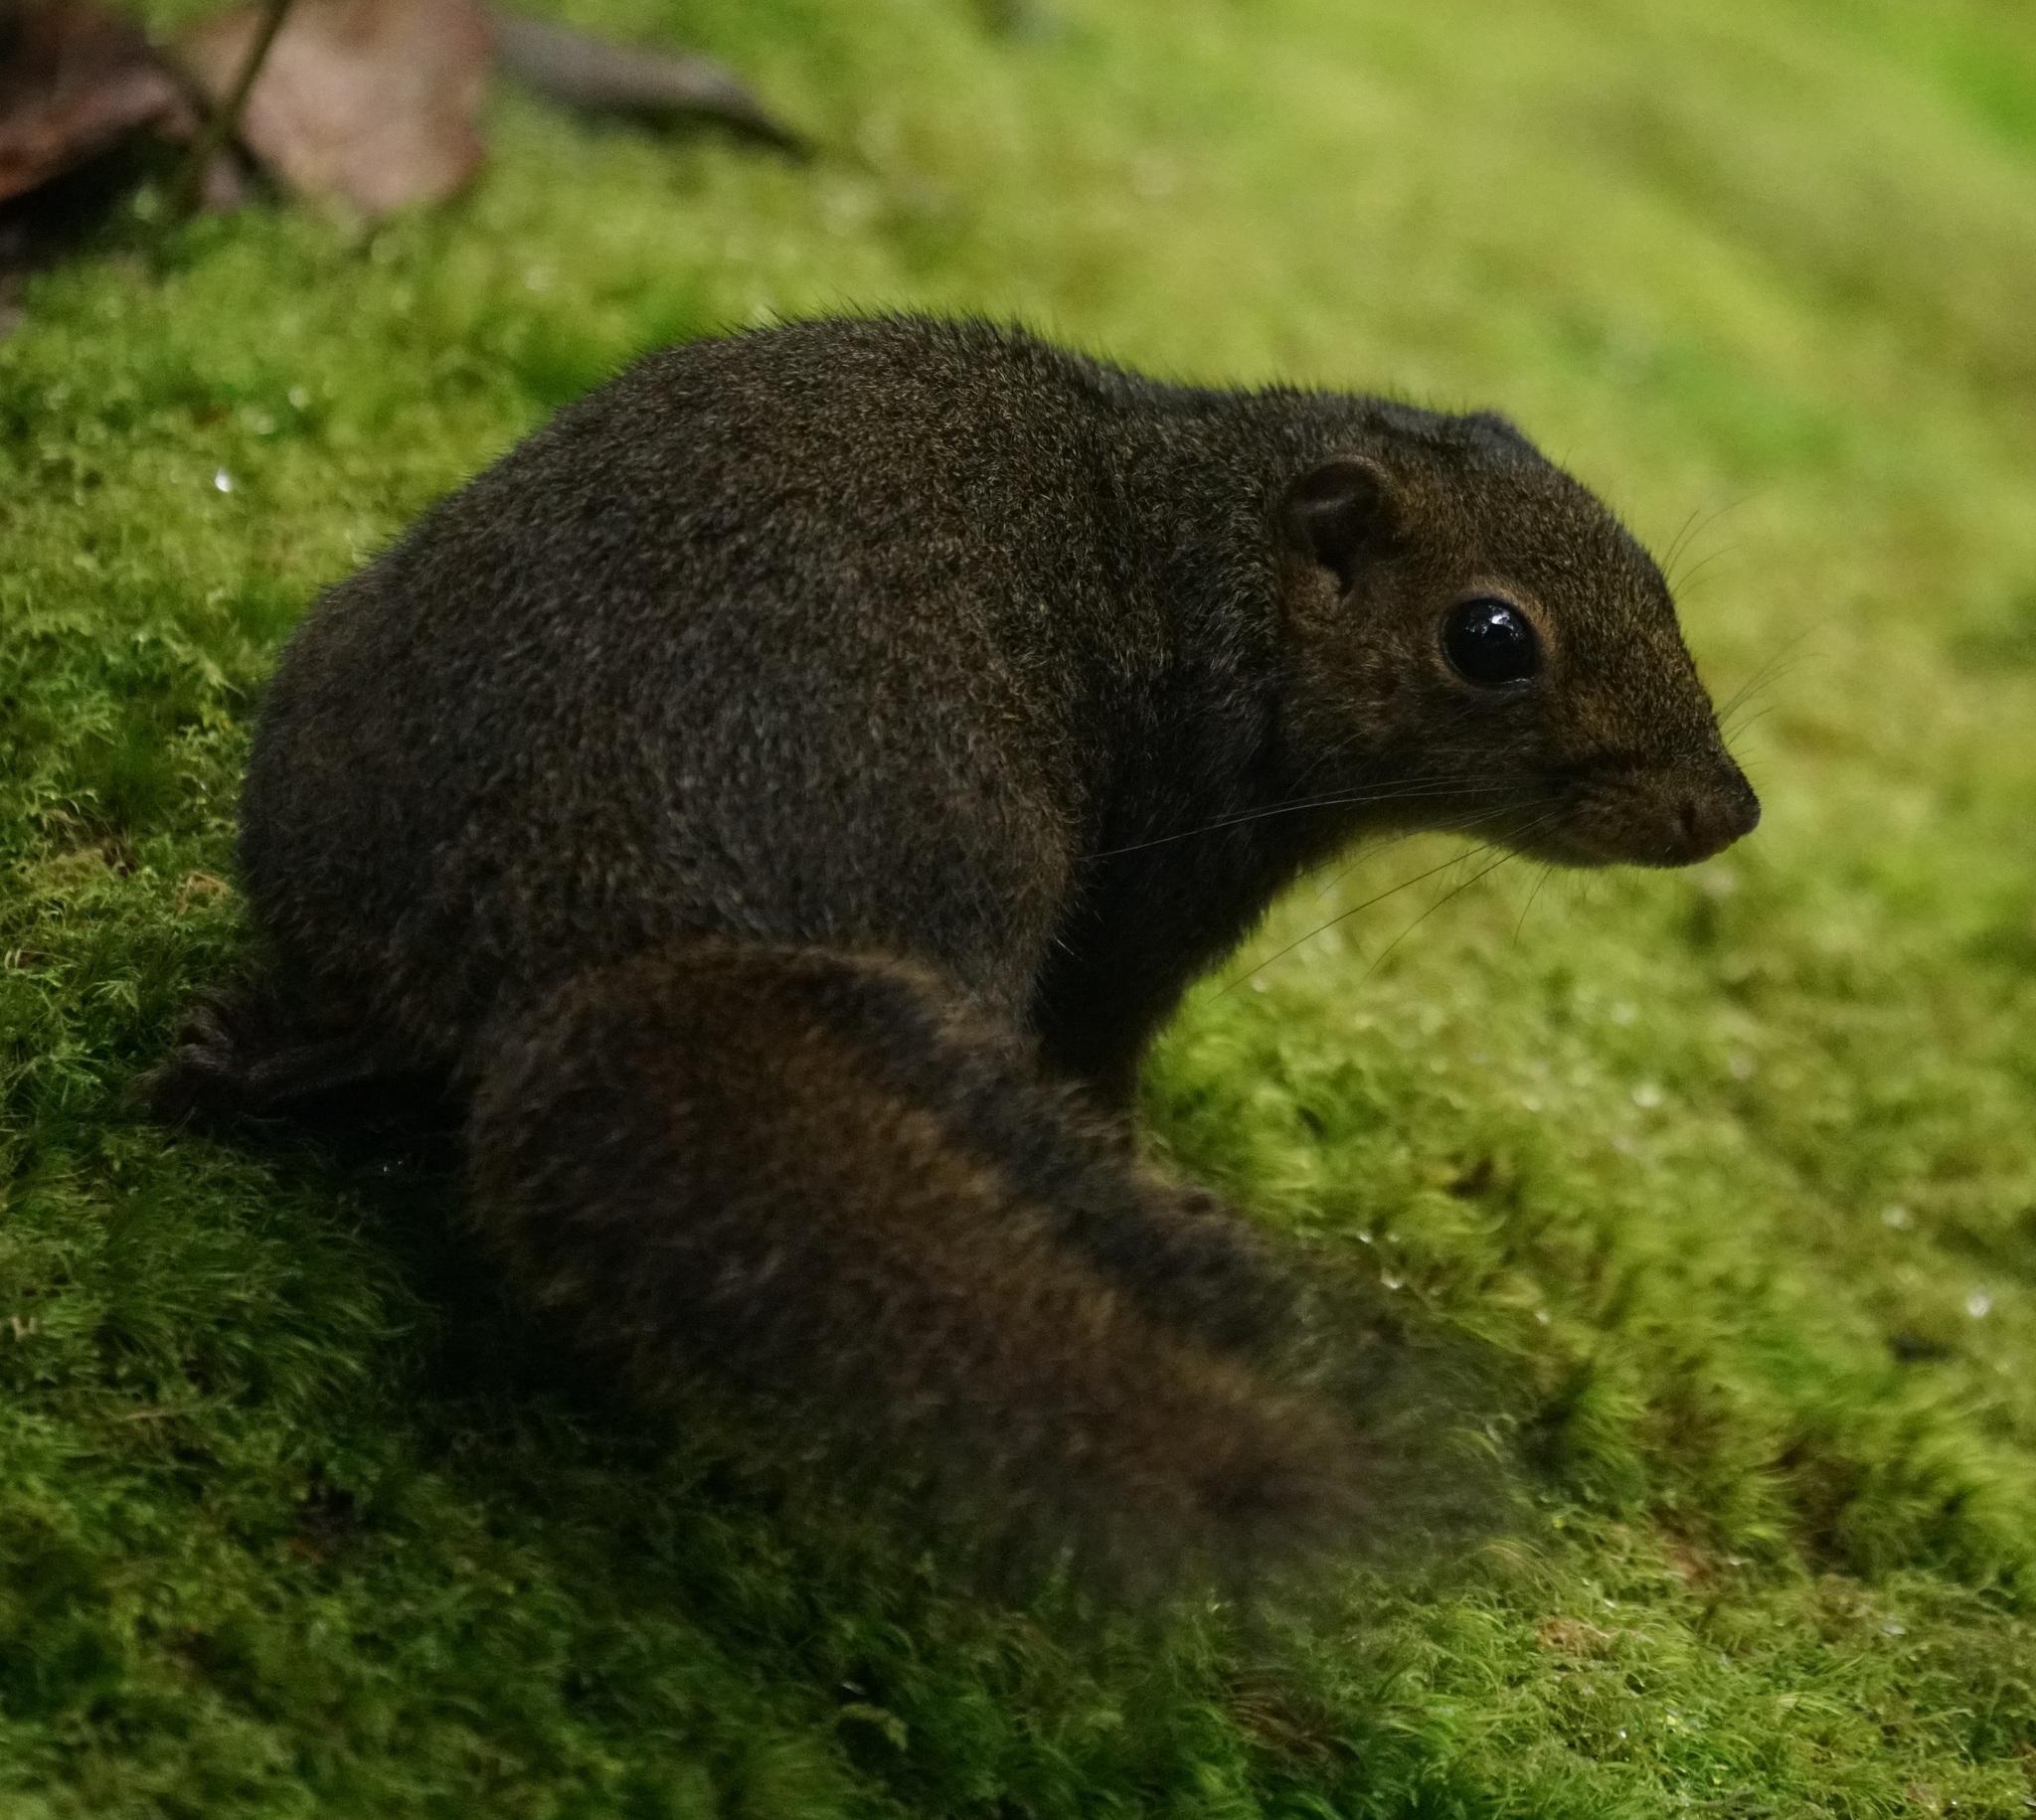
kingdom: Animalia
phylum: Chordata
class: Mammalia
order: Rodentia
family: Sciuridae
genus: Sundasciurus
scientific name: Sundasciurus everetti
